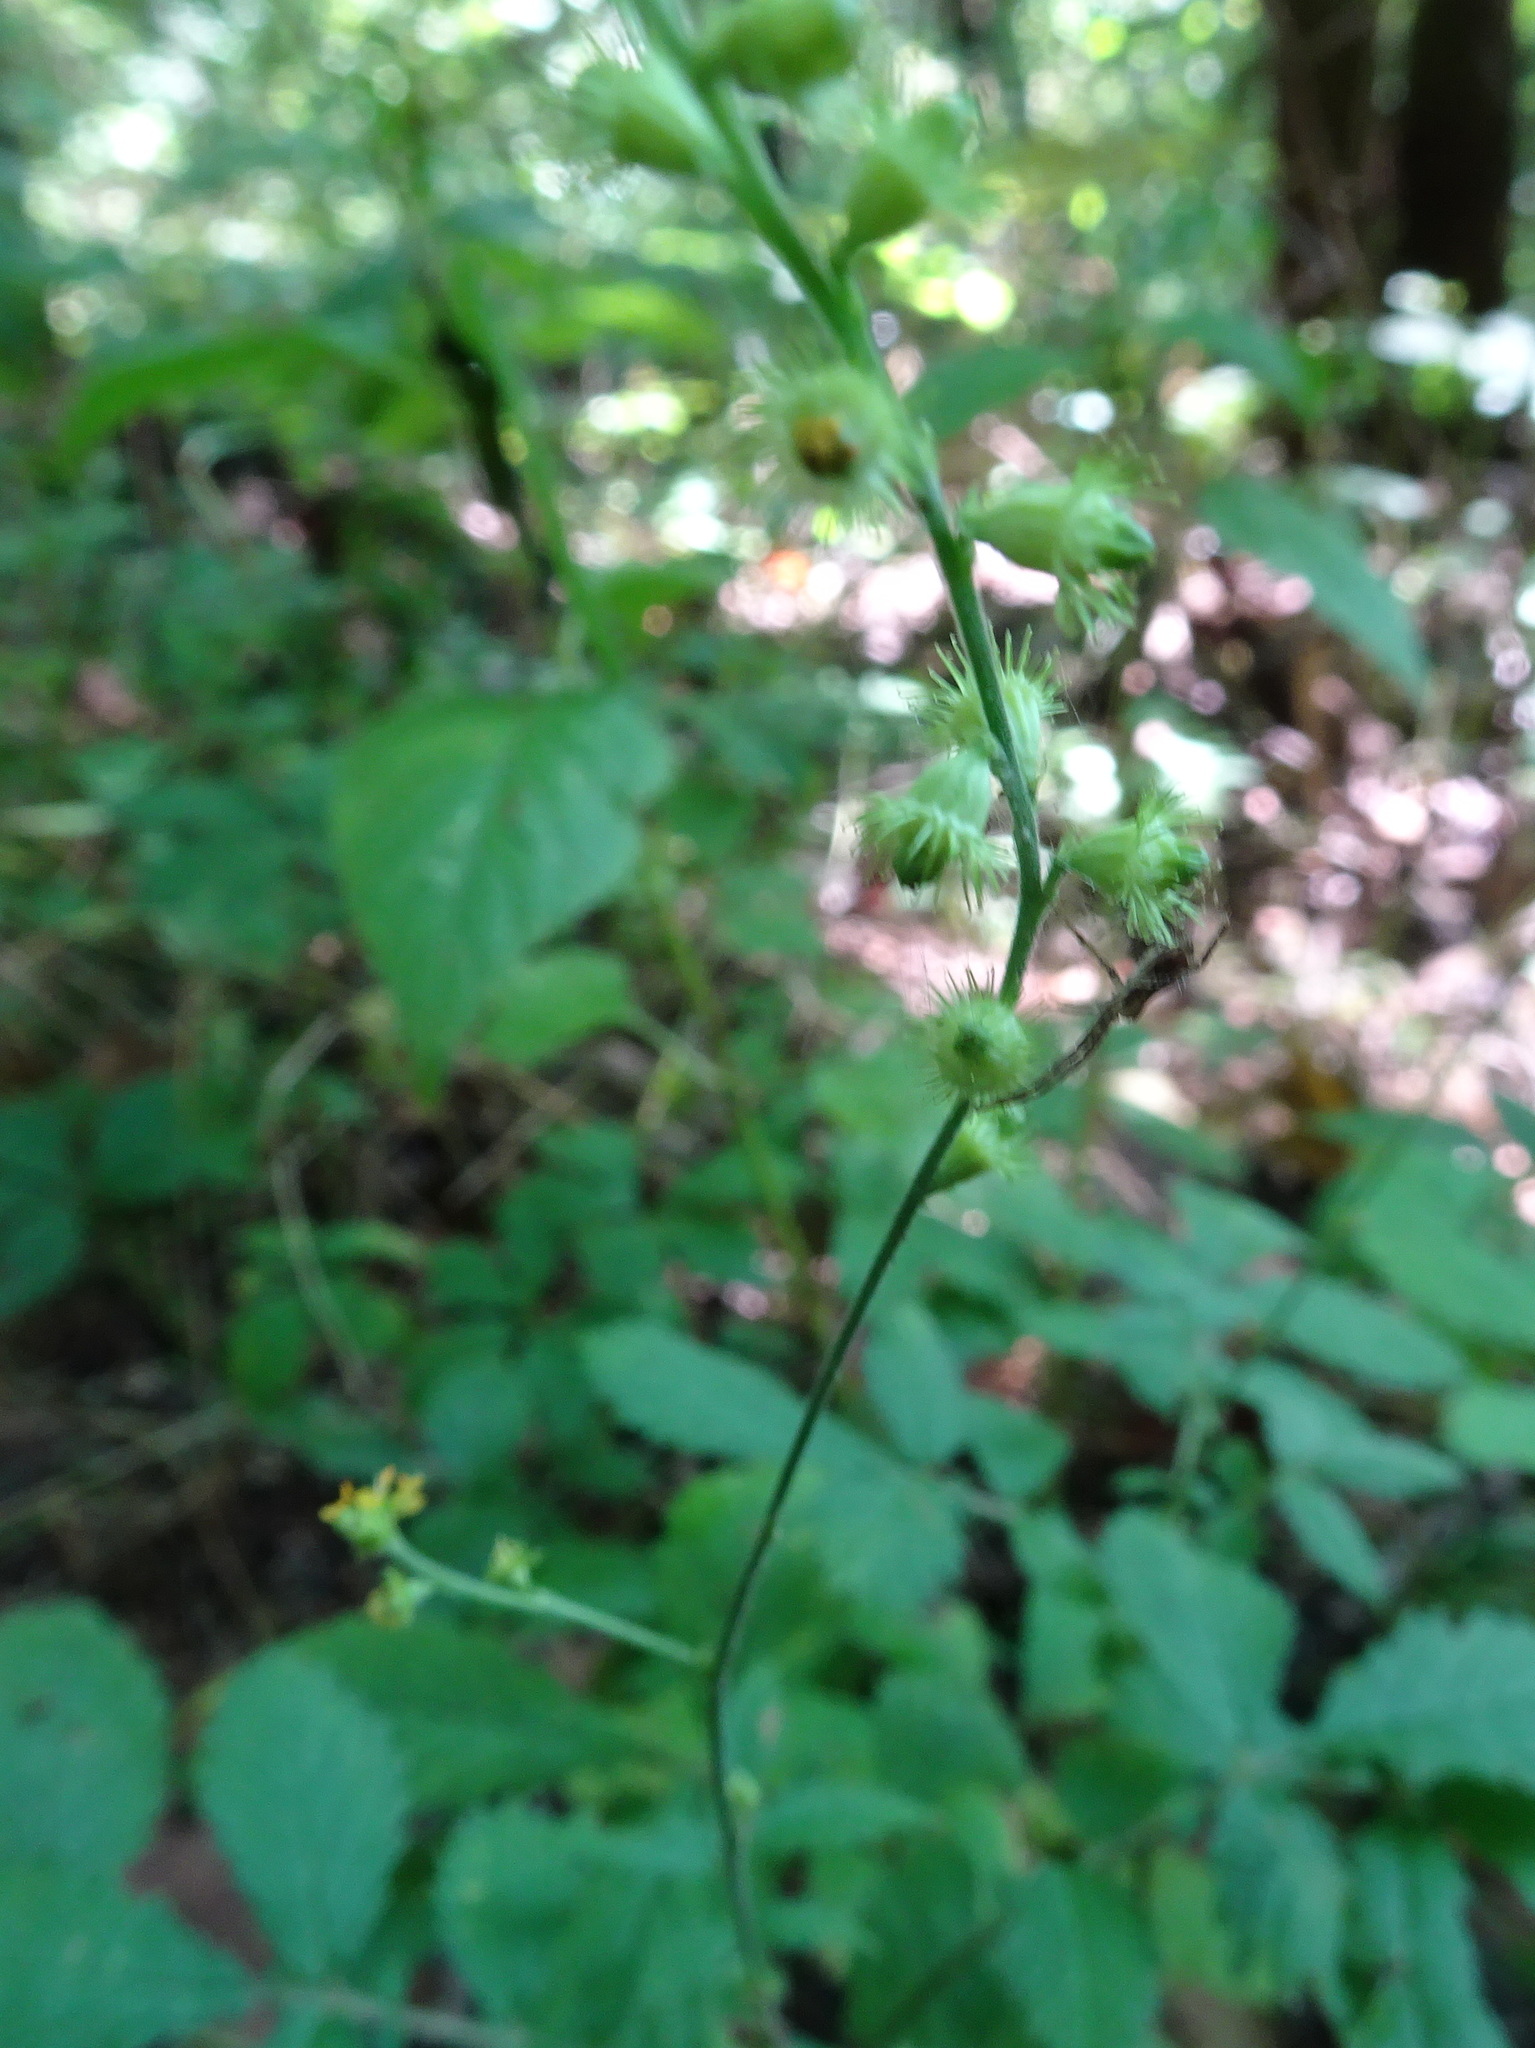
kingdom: Plantae
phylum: Tracheophyta
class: Magnoliopsida
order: Rosales
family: Rosaceae
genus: Agrimonia
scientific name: Agrimonia pubescens
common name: Downy agrimony
